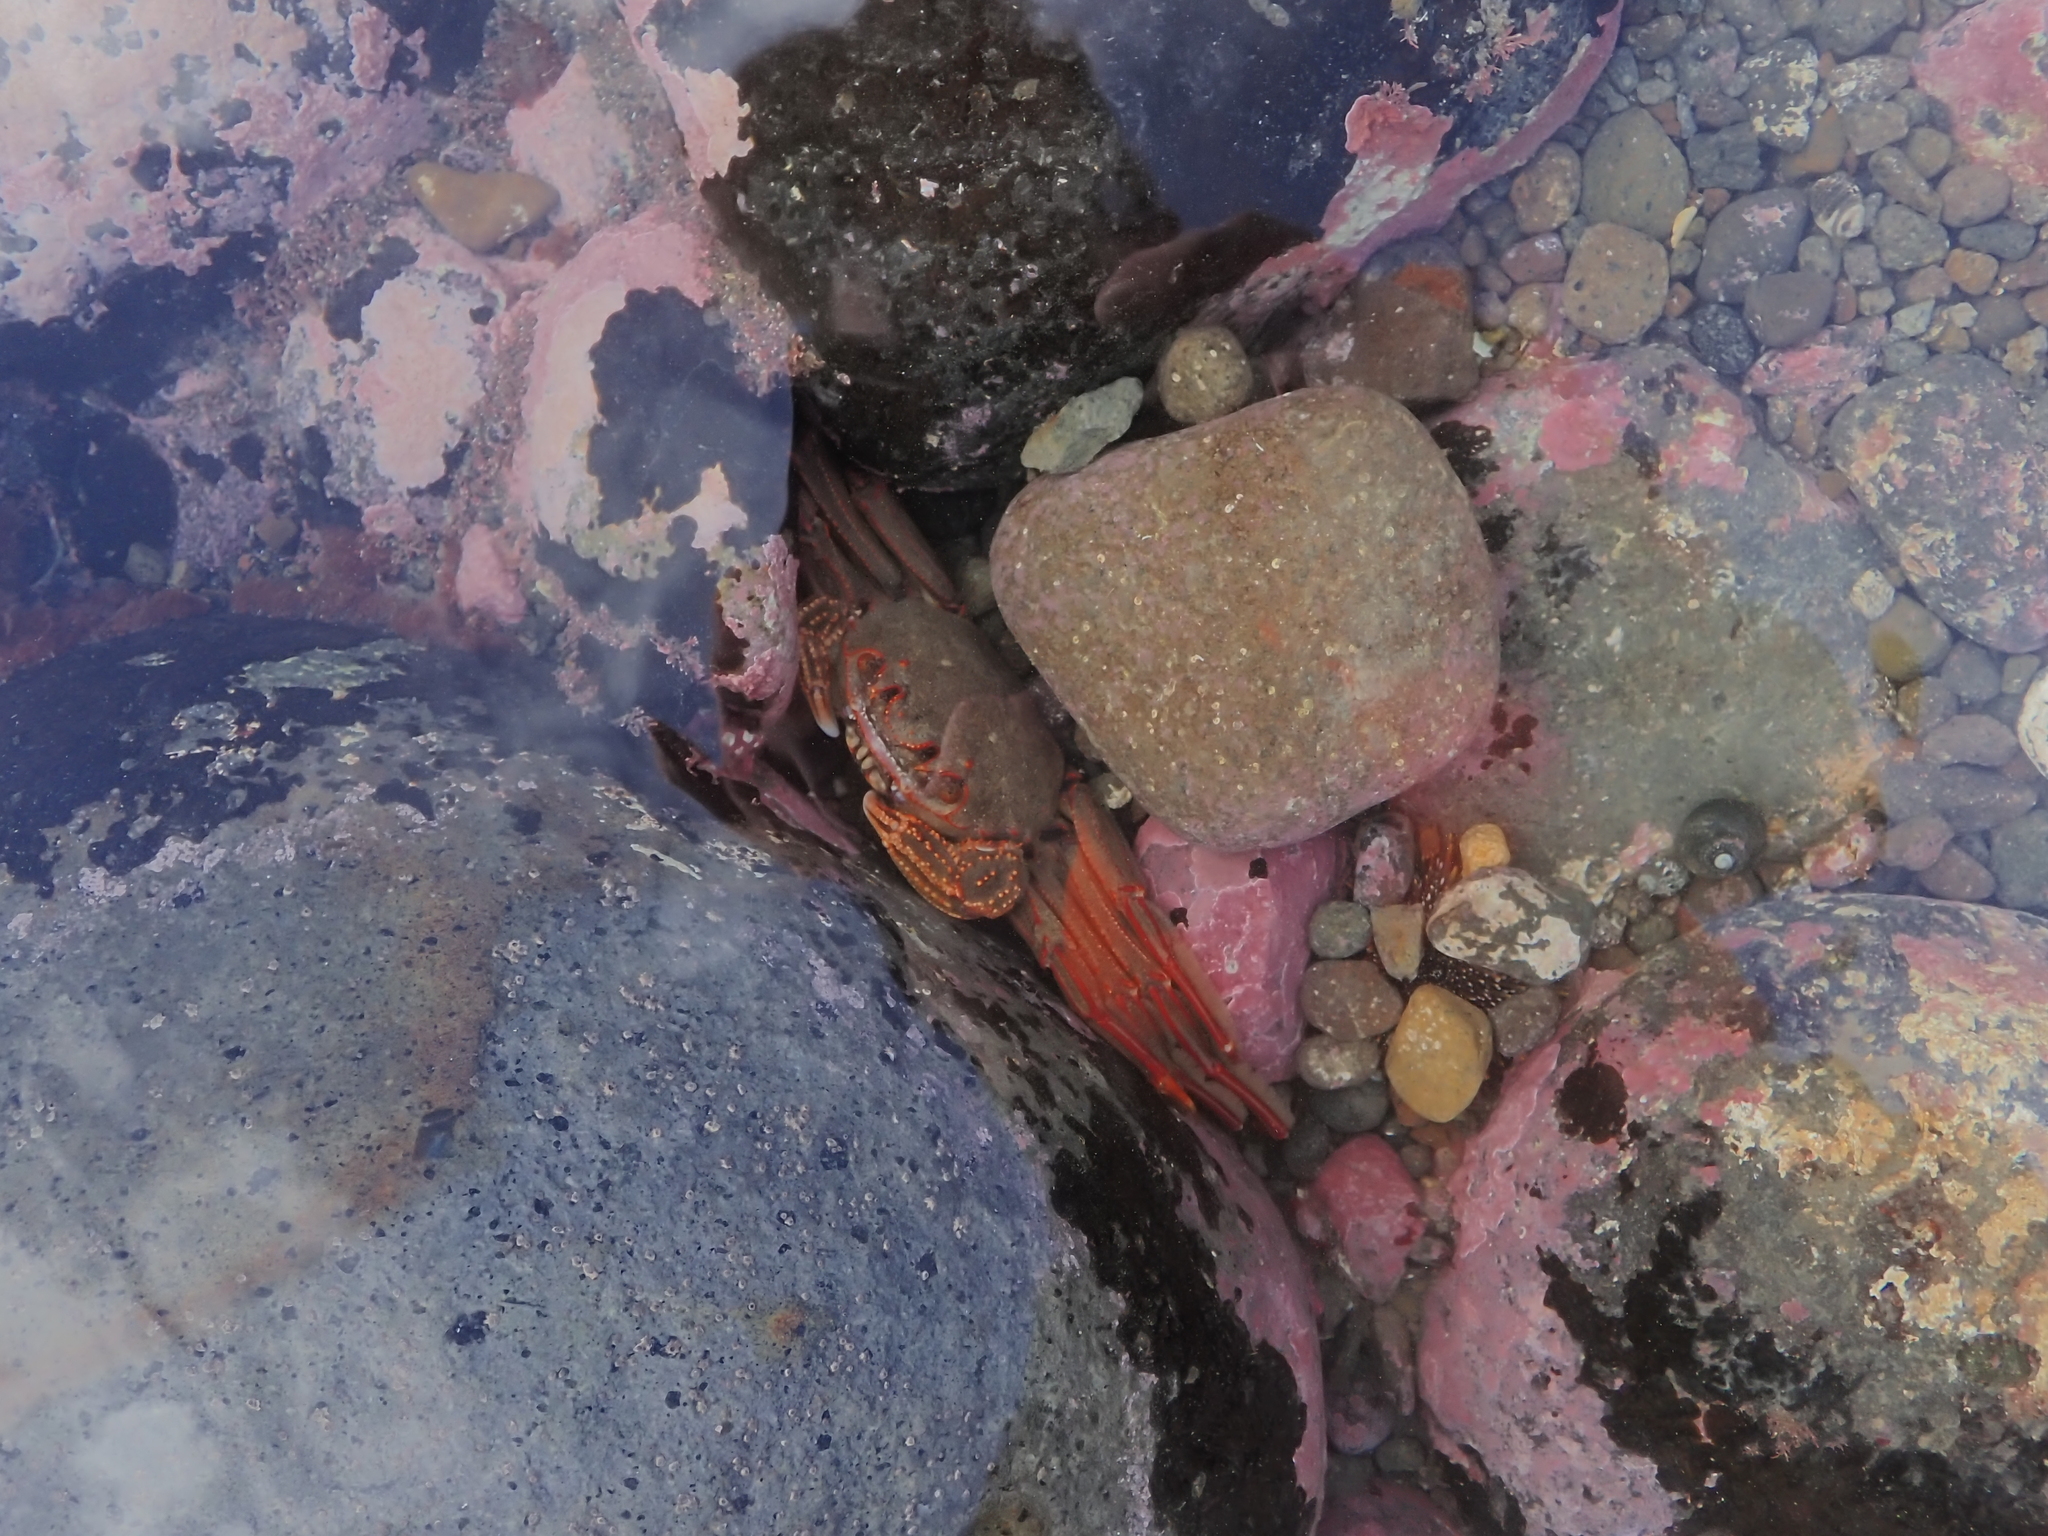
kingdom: Animalia
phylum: Arthropoda
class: Malacostraca
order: Decapoda
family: Plagusiidae
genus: Guinusia
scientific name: Guinusia chabrus
